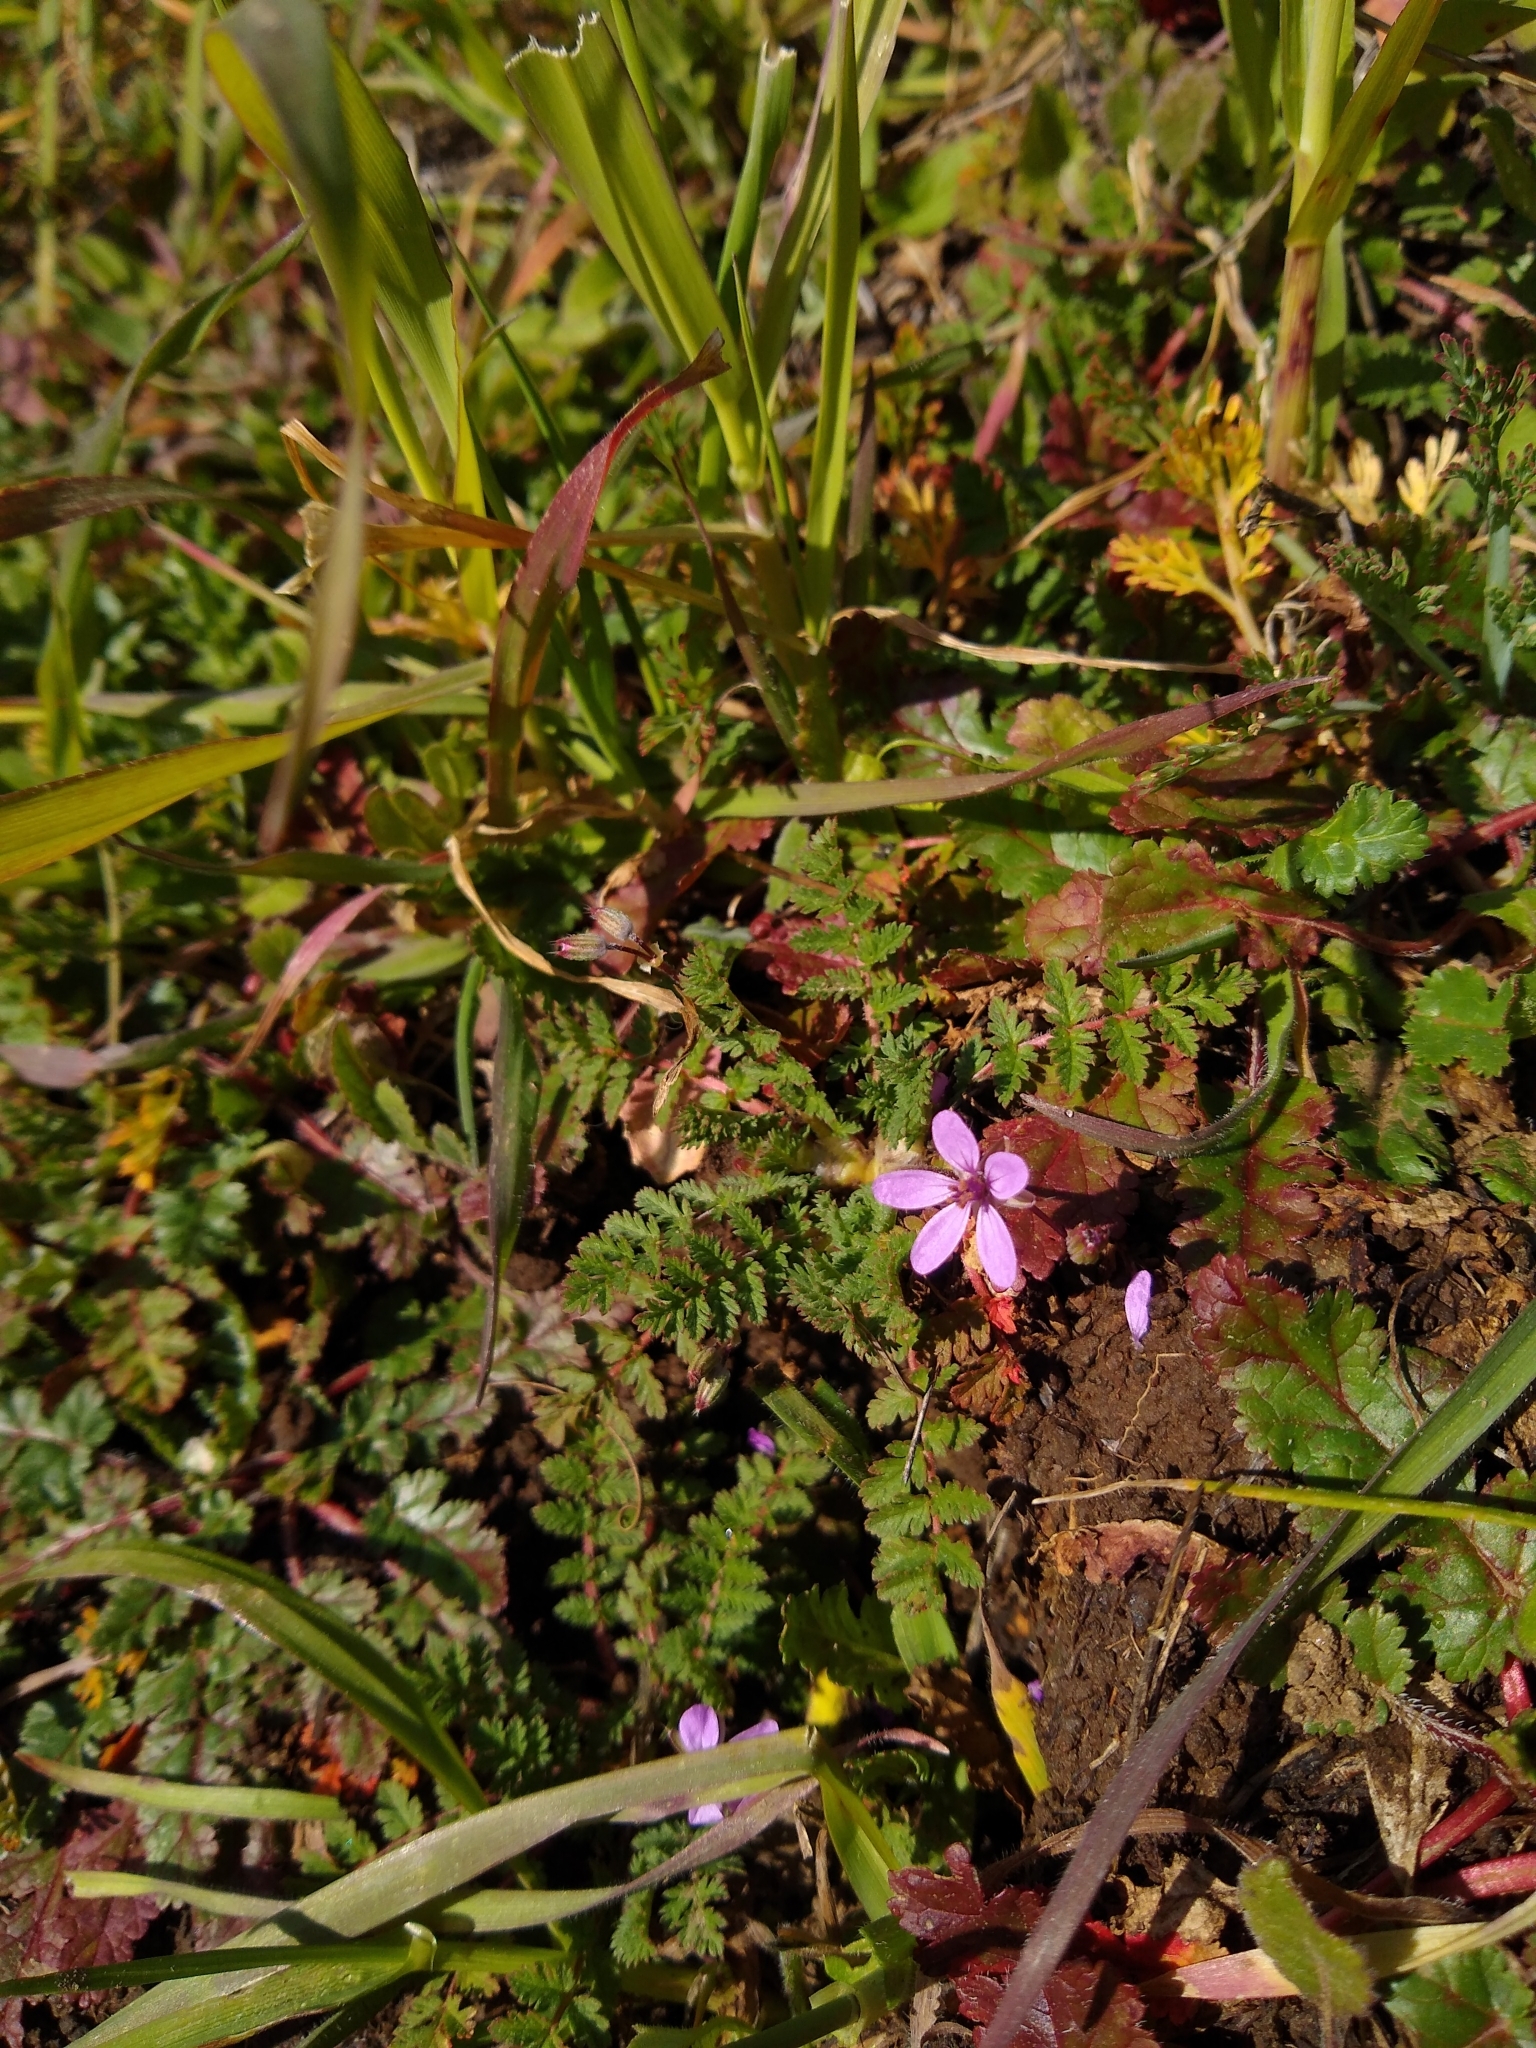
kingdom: Plantae
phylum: Tracheophyta
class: Magnoliopsida
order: Geraniales
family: Geraniaceae
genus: Erodium
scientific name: Erodium cicutarium
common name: Common stork's-bill
